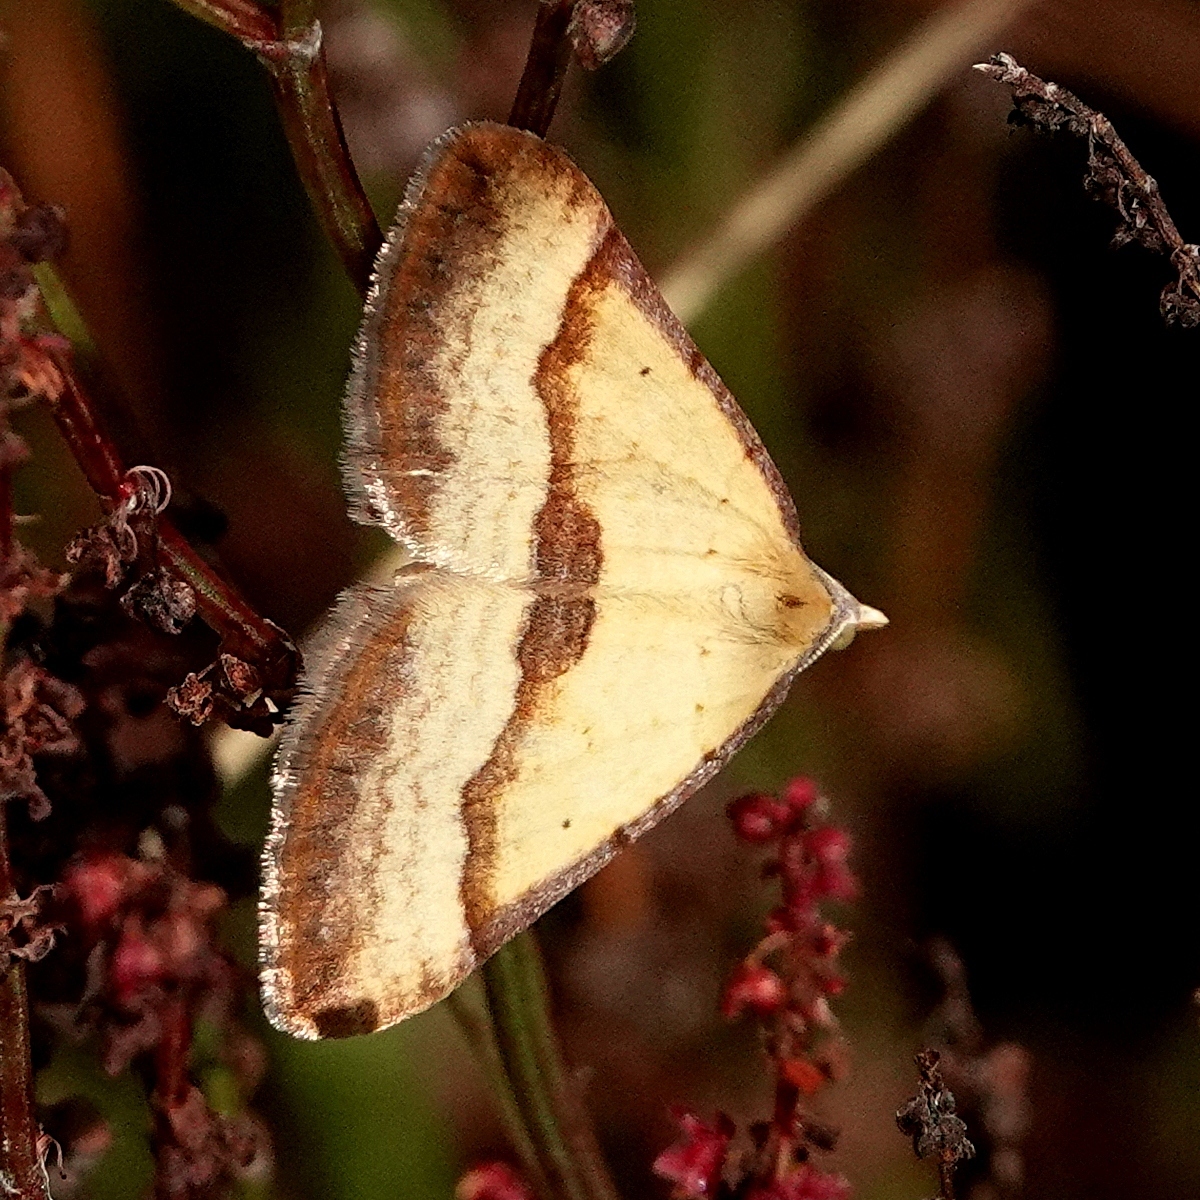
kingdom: Animalia
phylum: Arthropoda
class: Insecta
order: Lepidoptera
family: Geometridae
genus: Anachloris
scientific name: Anachloris subochraria
